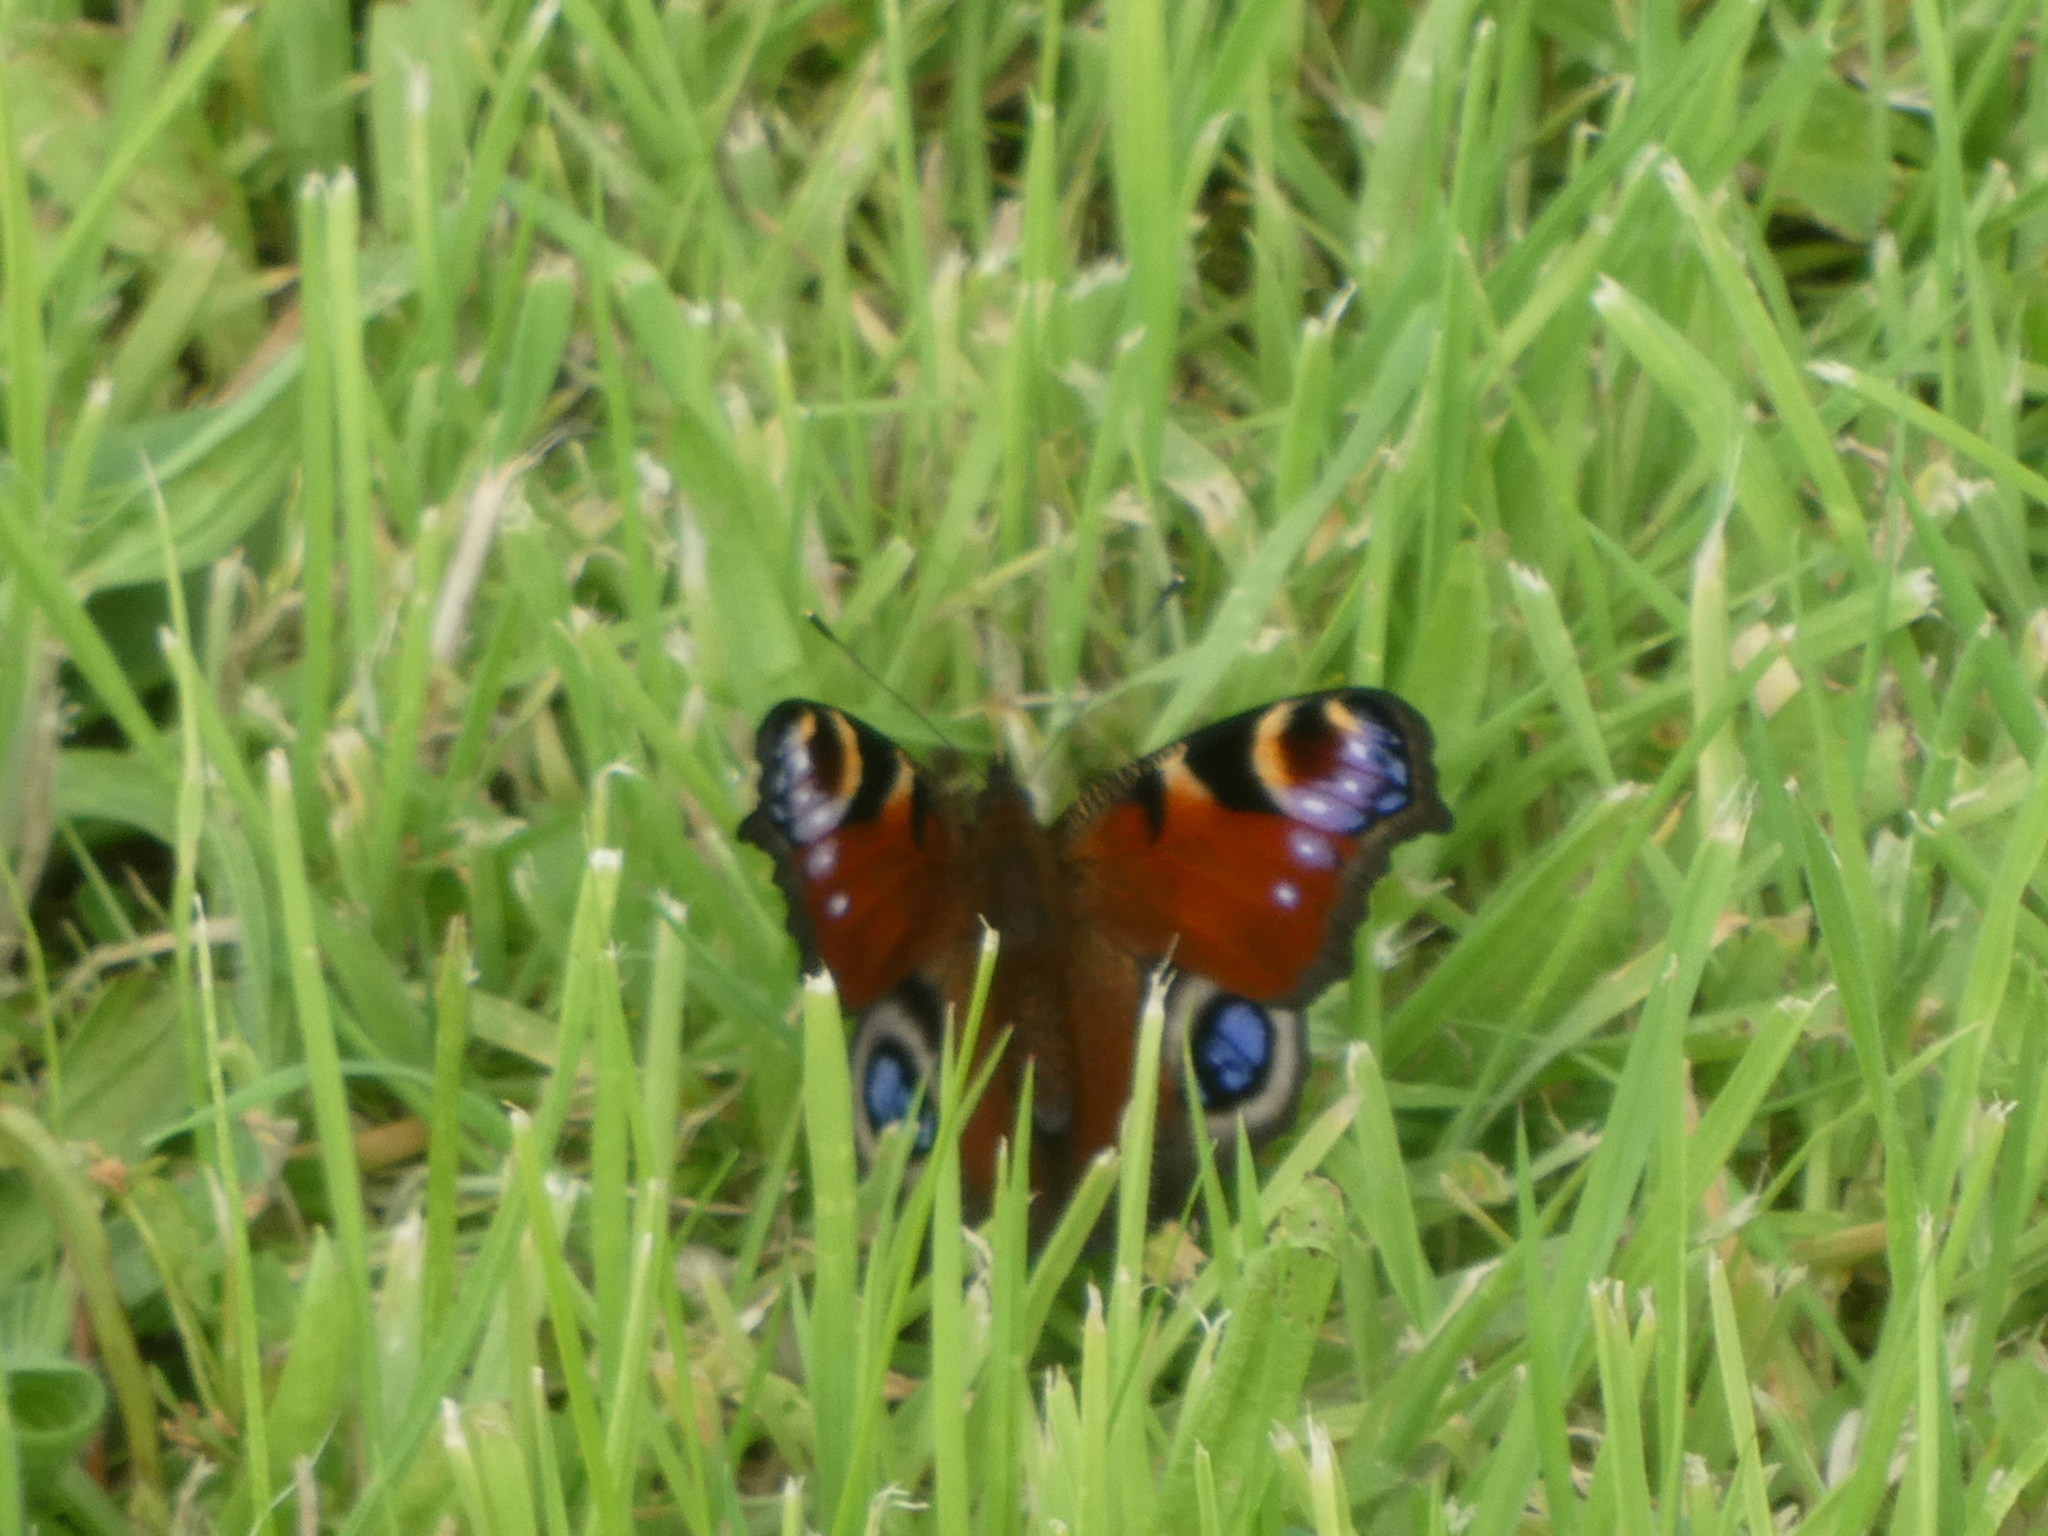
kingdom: Animalia
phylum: Arthropoda
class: Insecta
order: Lepidoptera
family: Nymphalidae
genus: Aglais
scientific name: Aglais io
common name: Peacock
